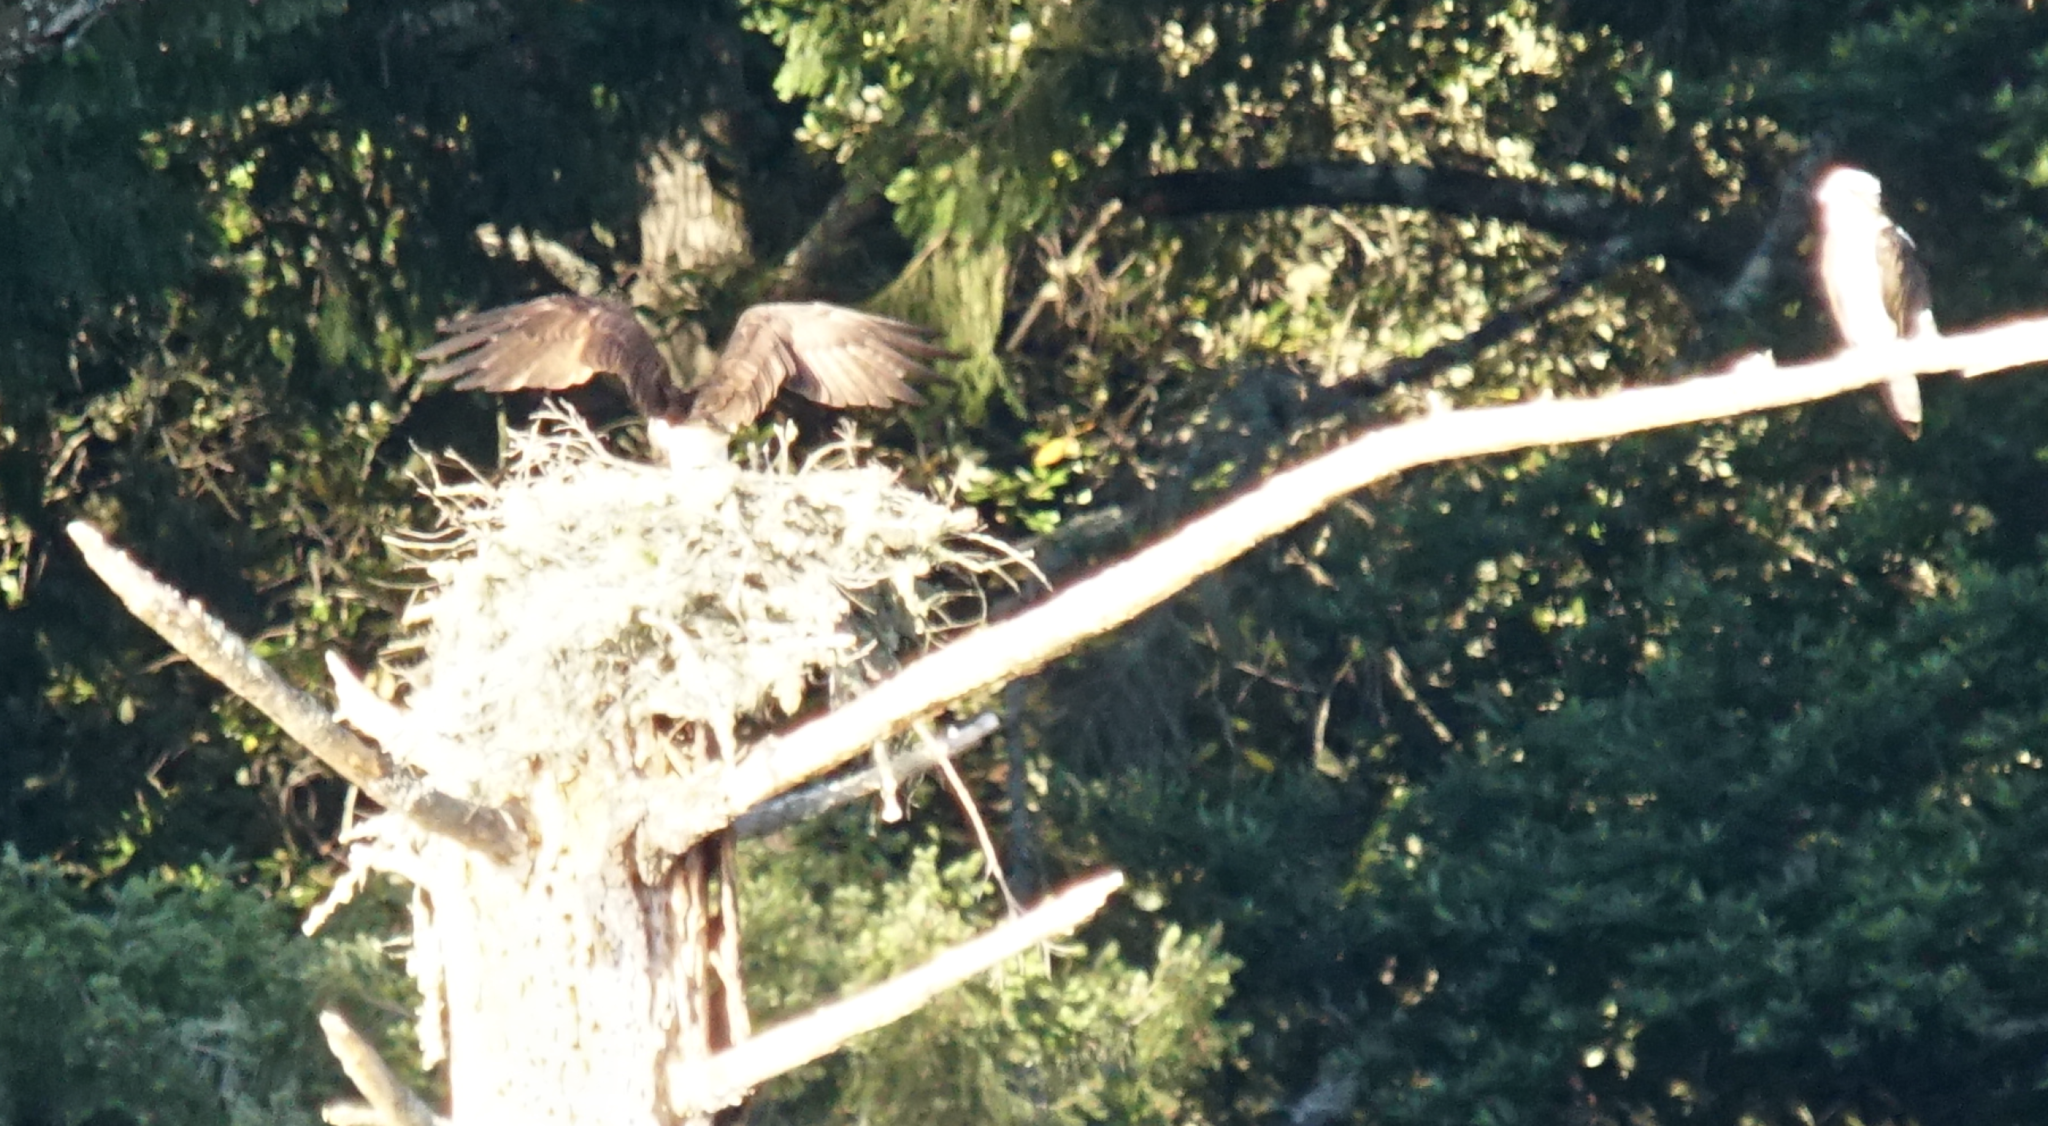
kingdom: Animalia
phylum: Chordata
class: Aves
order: Accipitriformes
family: Pandionidae
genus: Pandion
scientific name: Pandion haliaetus
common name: Osprey
